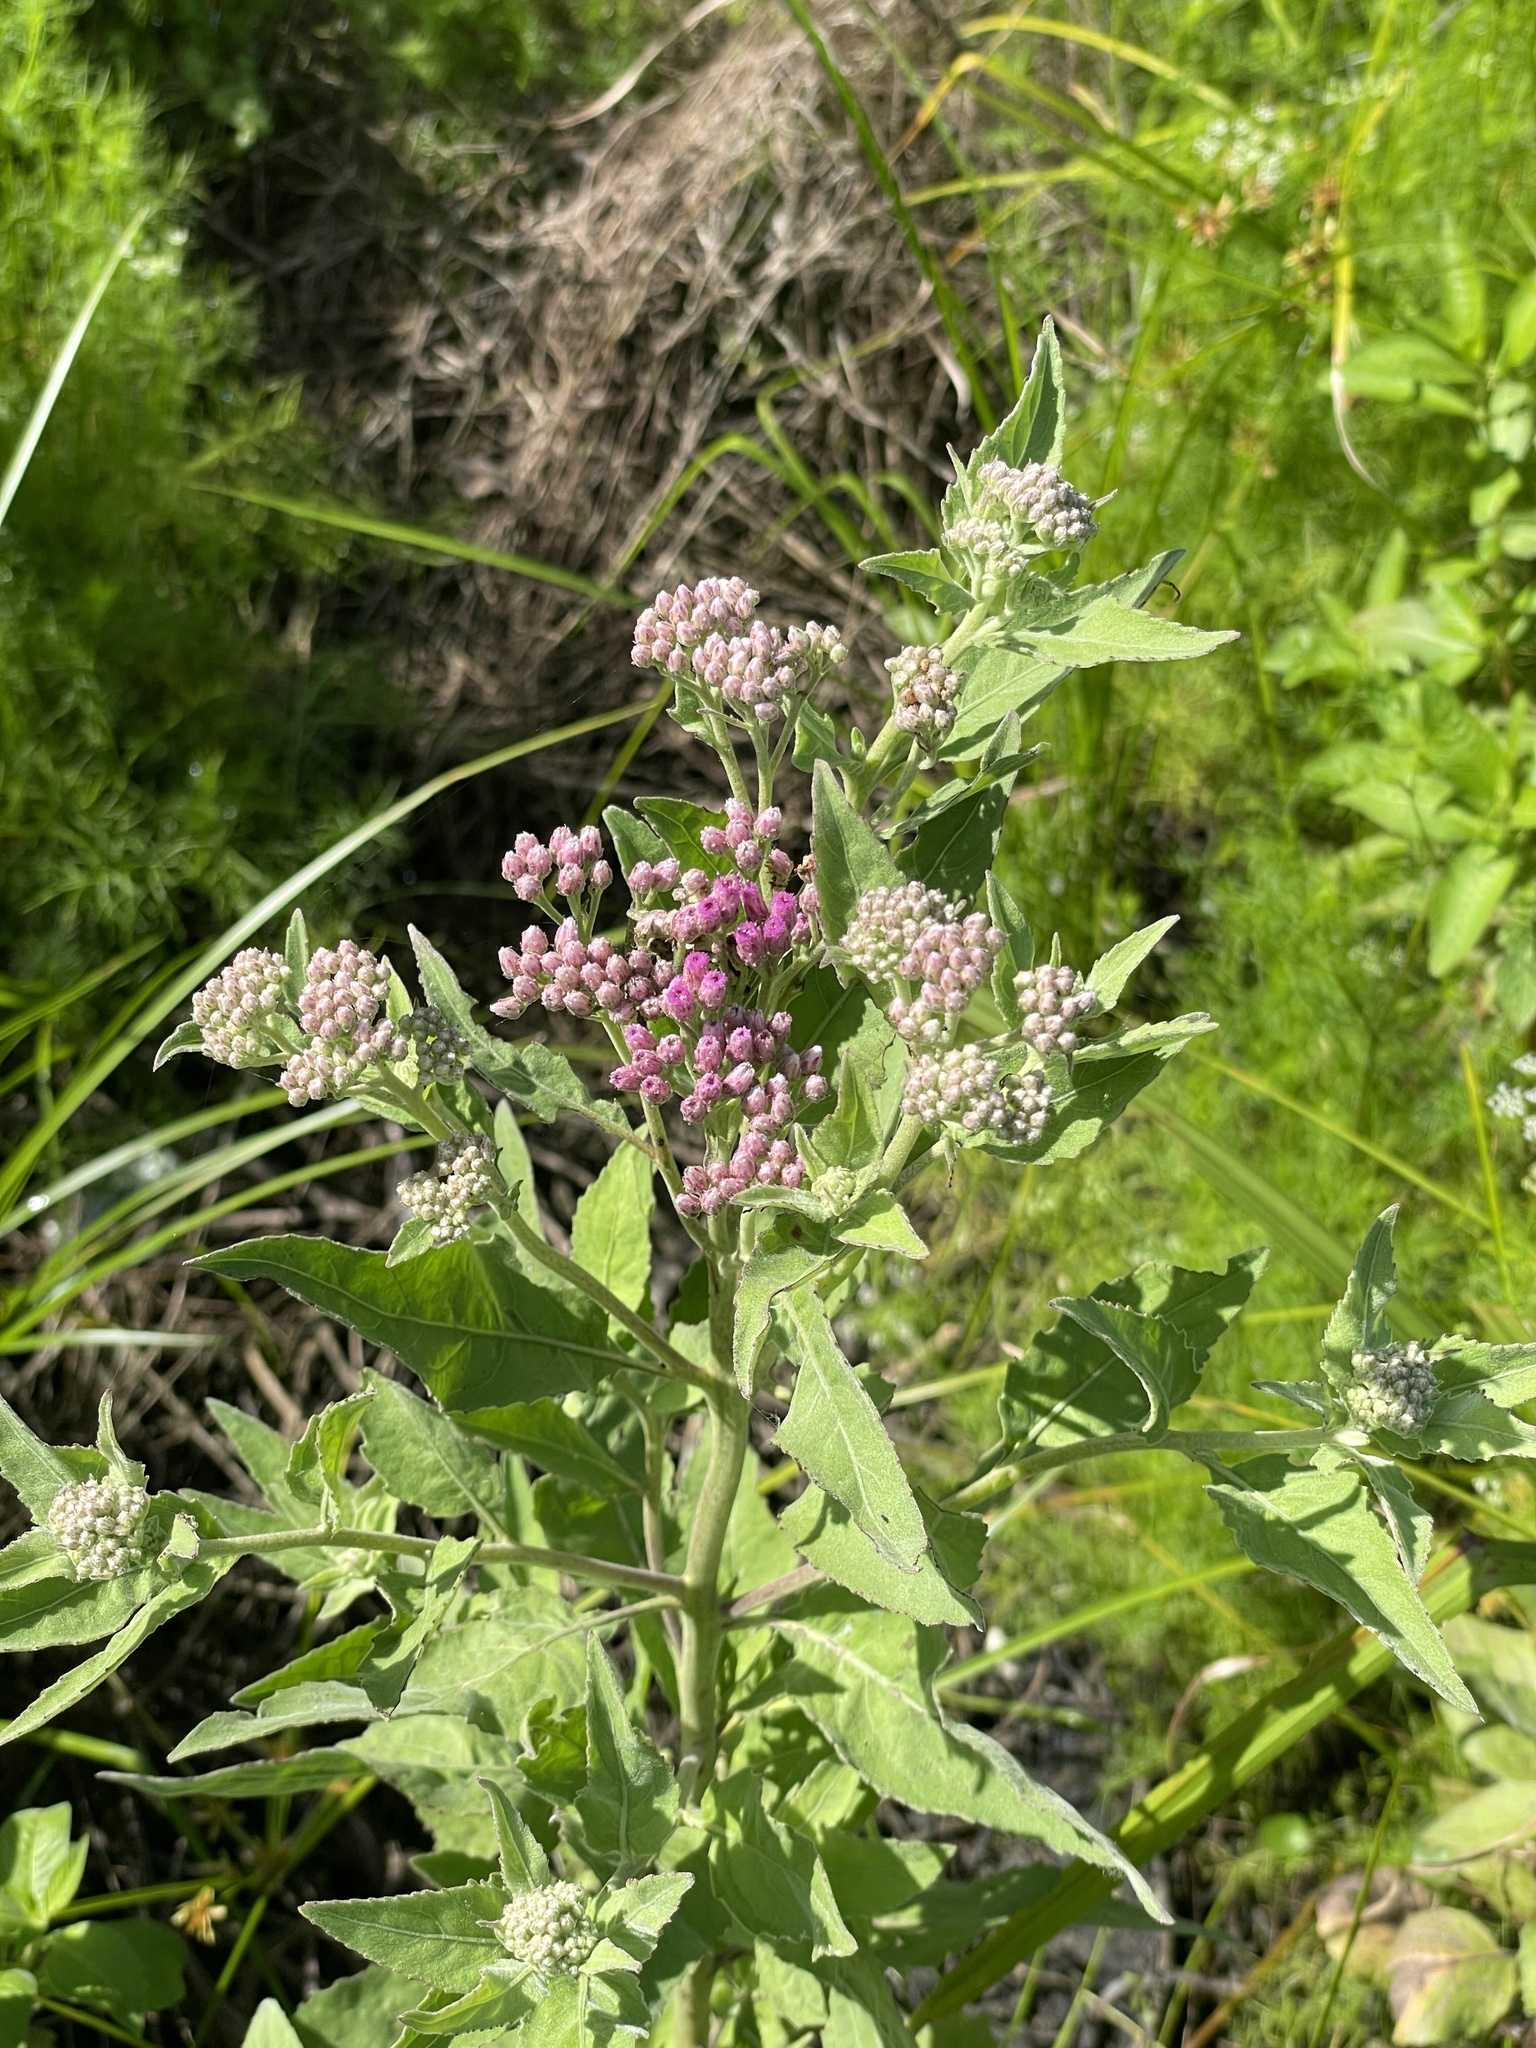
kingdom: Plantae
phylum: Tracheophyta
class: Magnoliopsida
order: Asterales
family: Asteraceae
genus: Pluchea
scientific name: Pluchea odorata
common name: Saltmarsh fleabane
